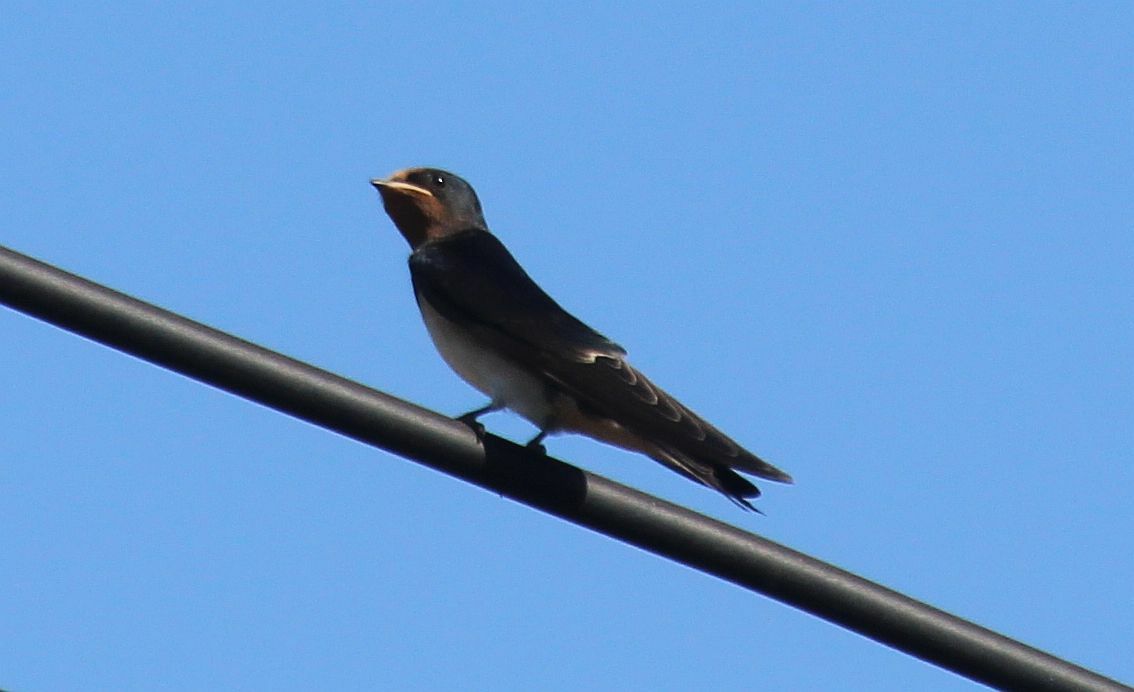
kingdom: Animalia
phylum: Chordata
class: Aves
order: Passeriformes
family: Hirundinidae
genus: Hirundo
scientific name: Hirundo rustica
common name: Barn swallow
